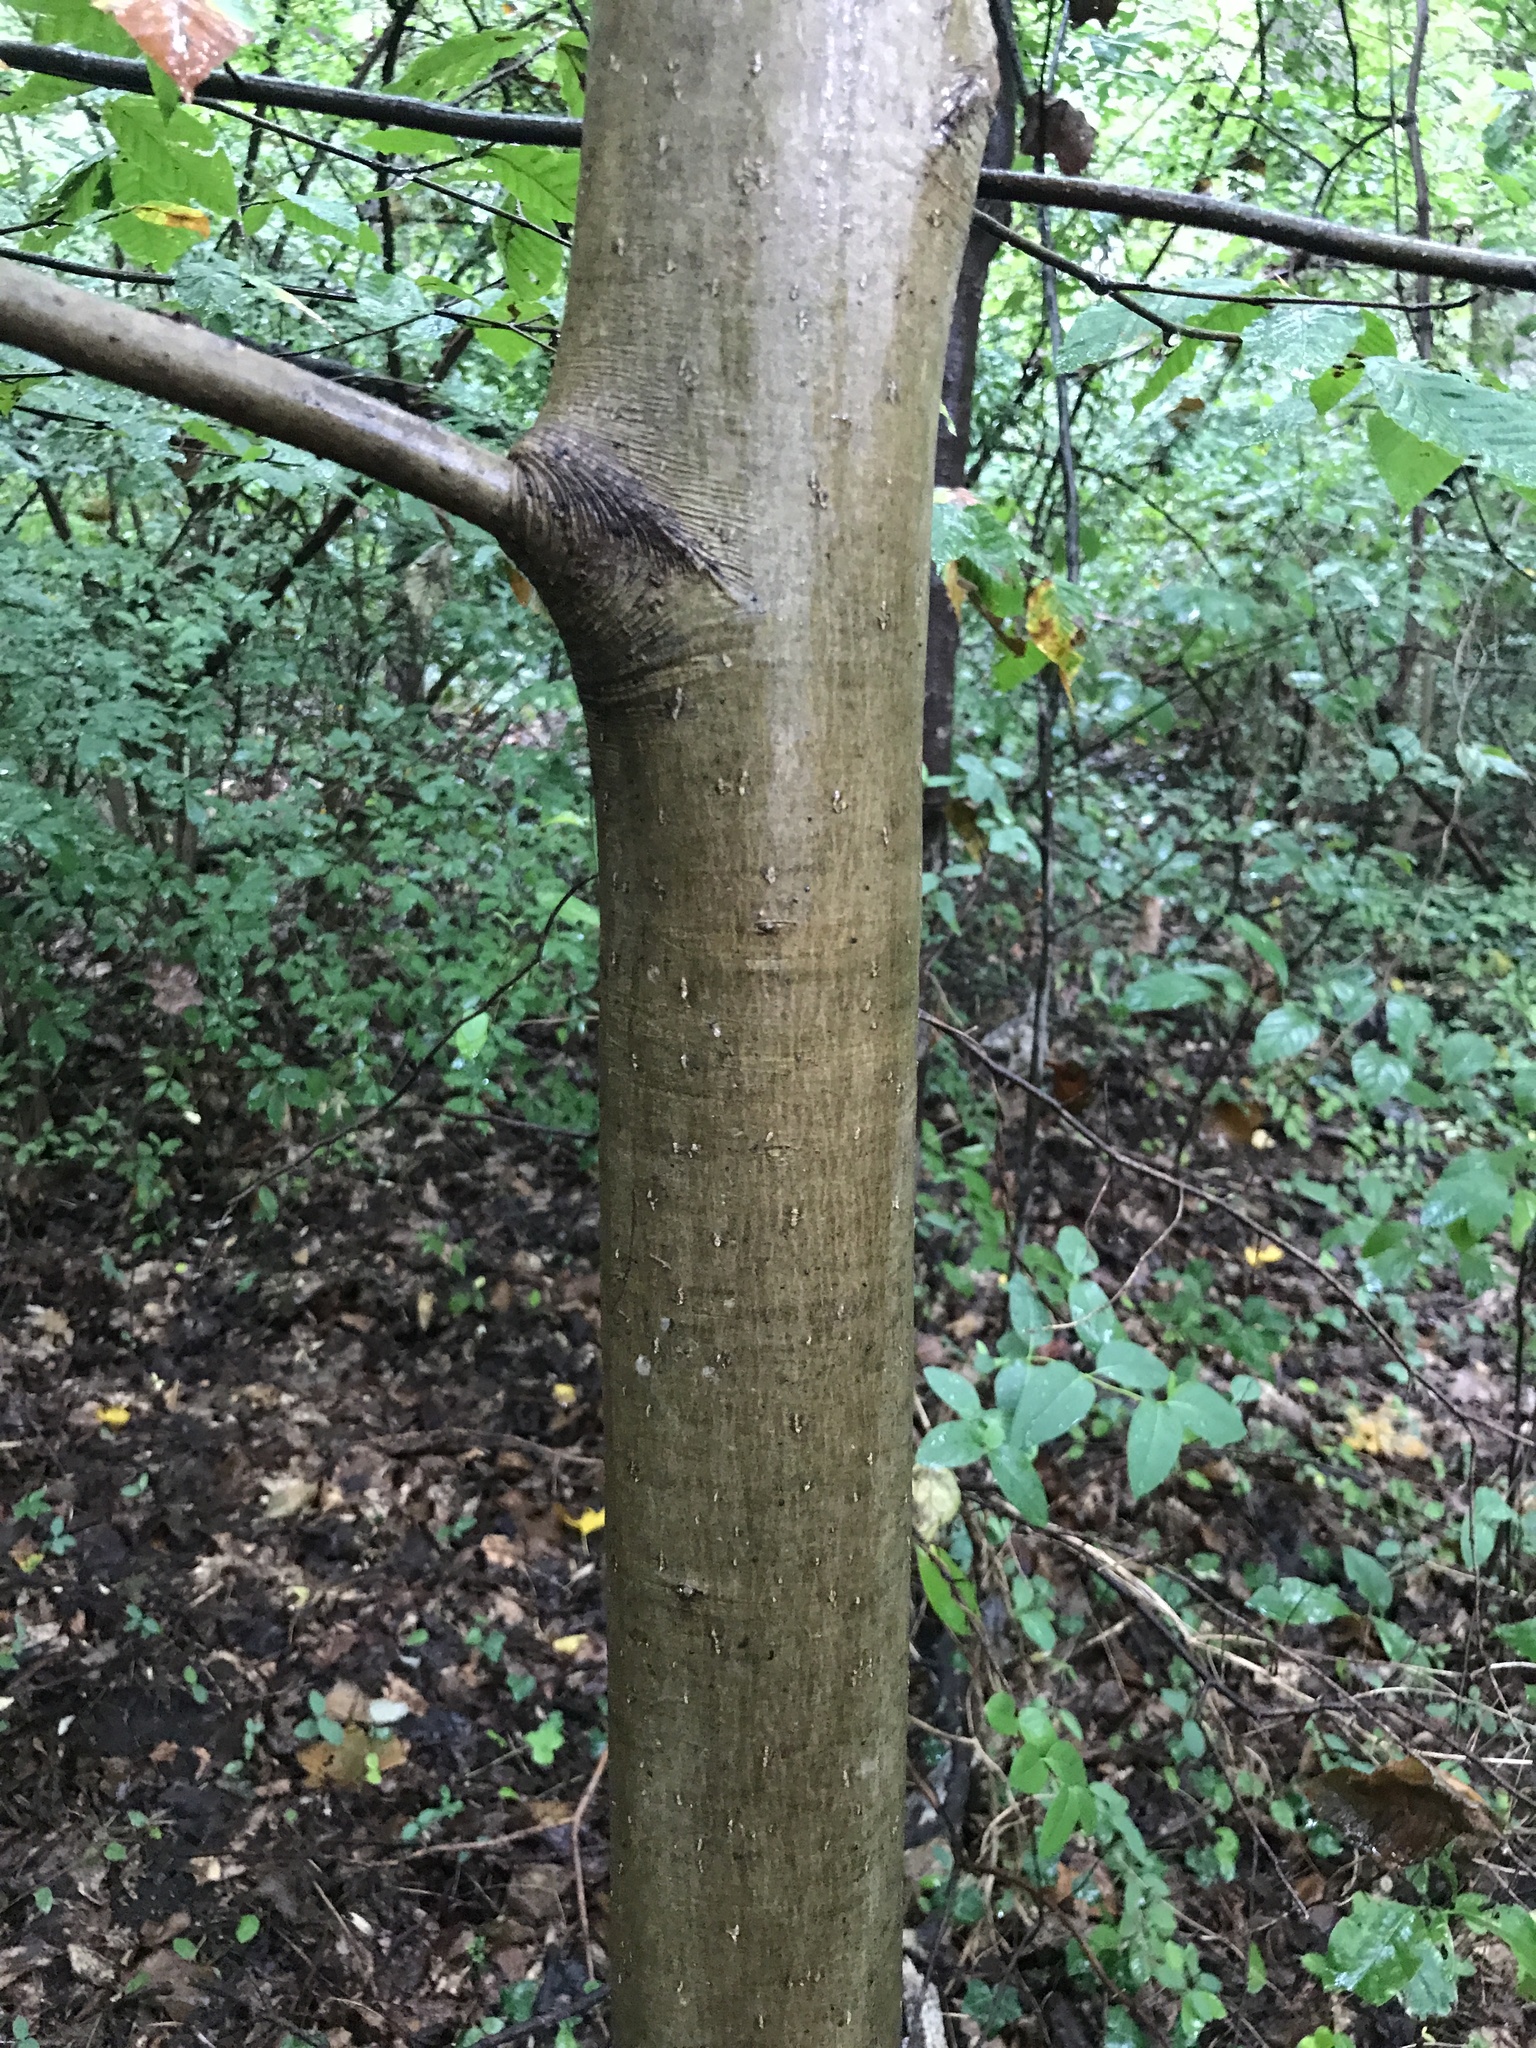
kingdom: Plantae
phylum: Tracheophyta
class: Magnoliopsida
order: Magnoliales
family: Magnoliaceae
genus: Magnolia
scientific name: Magnolia tripetala
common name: Umbrella magnolia
